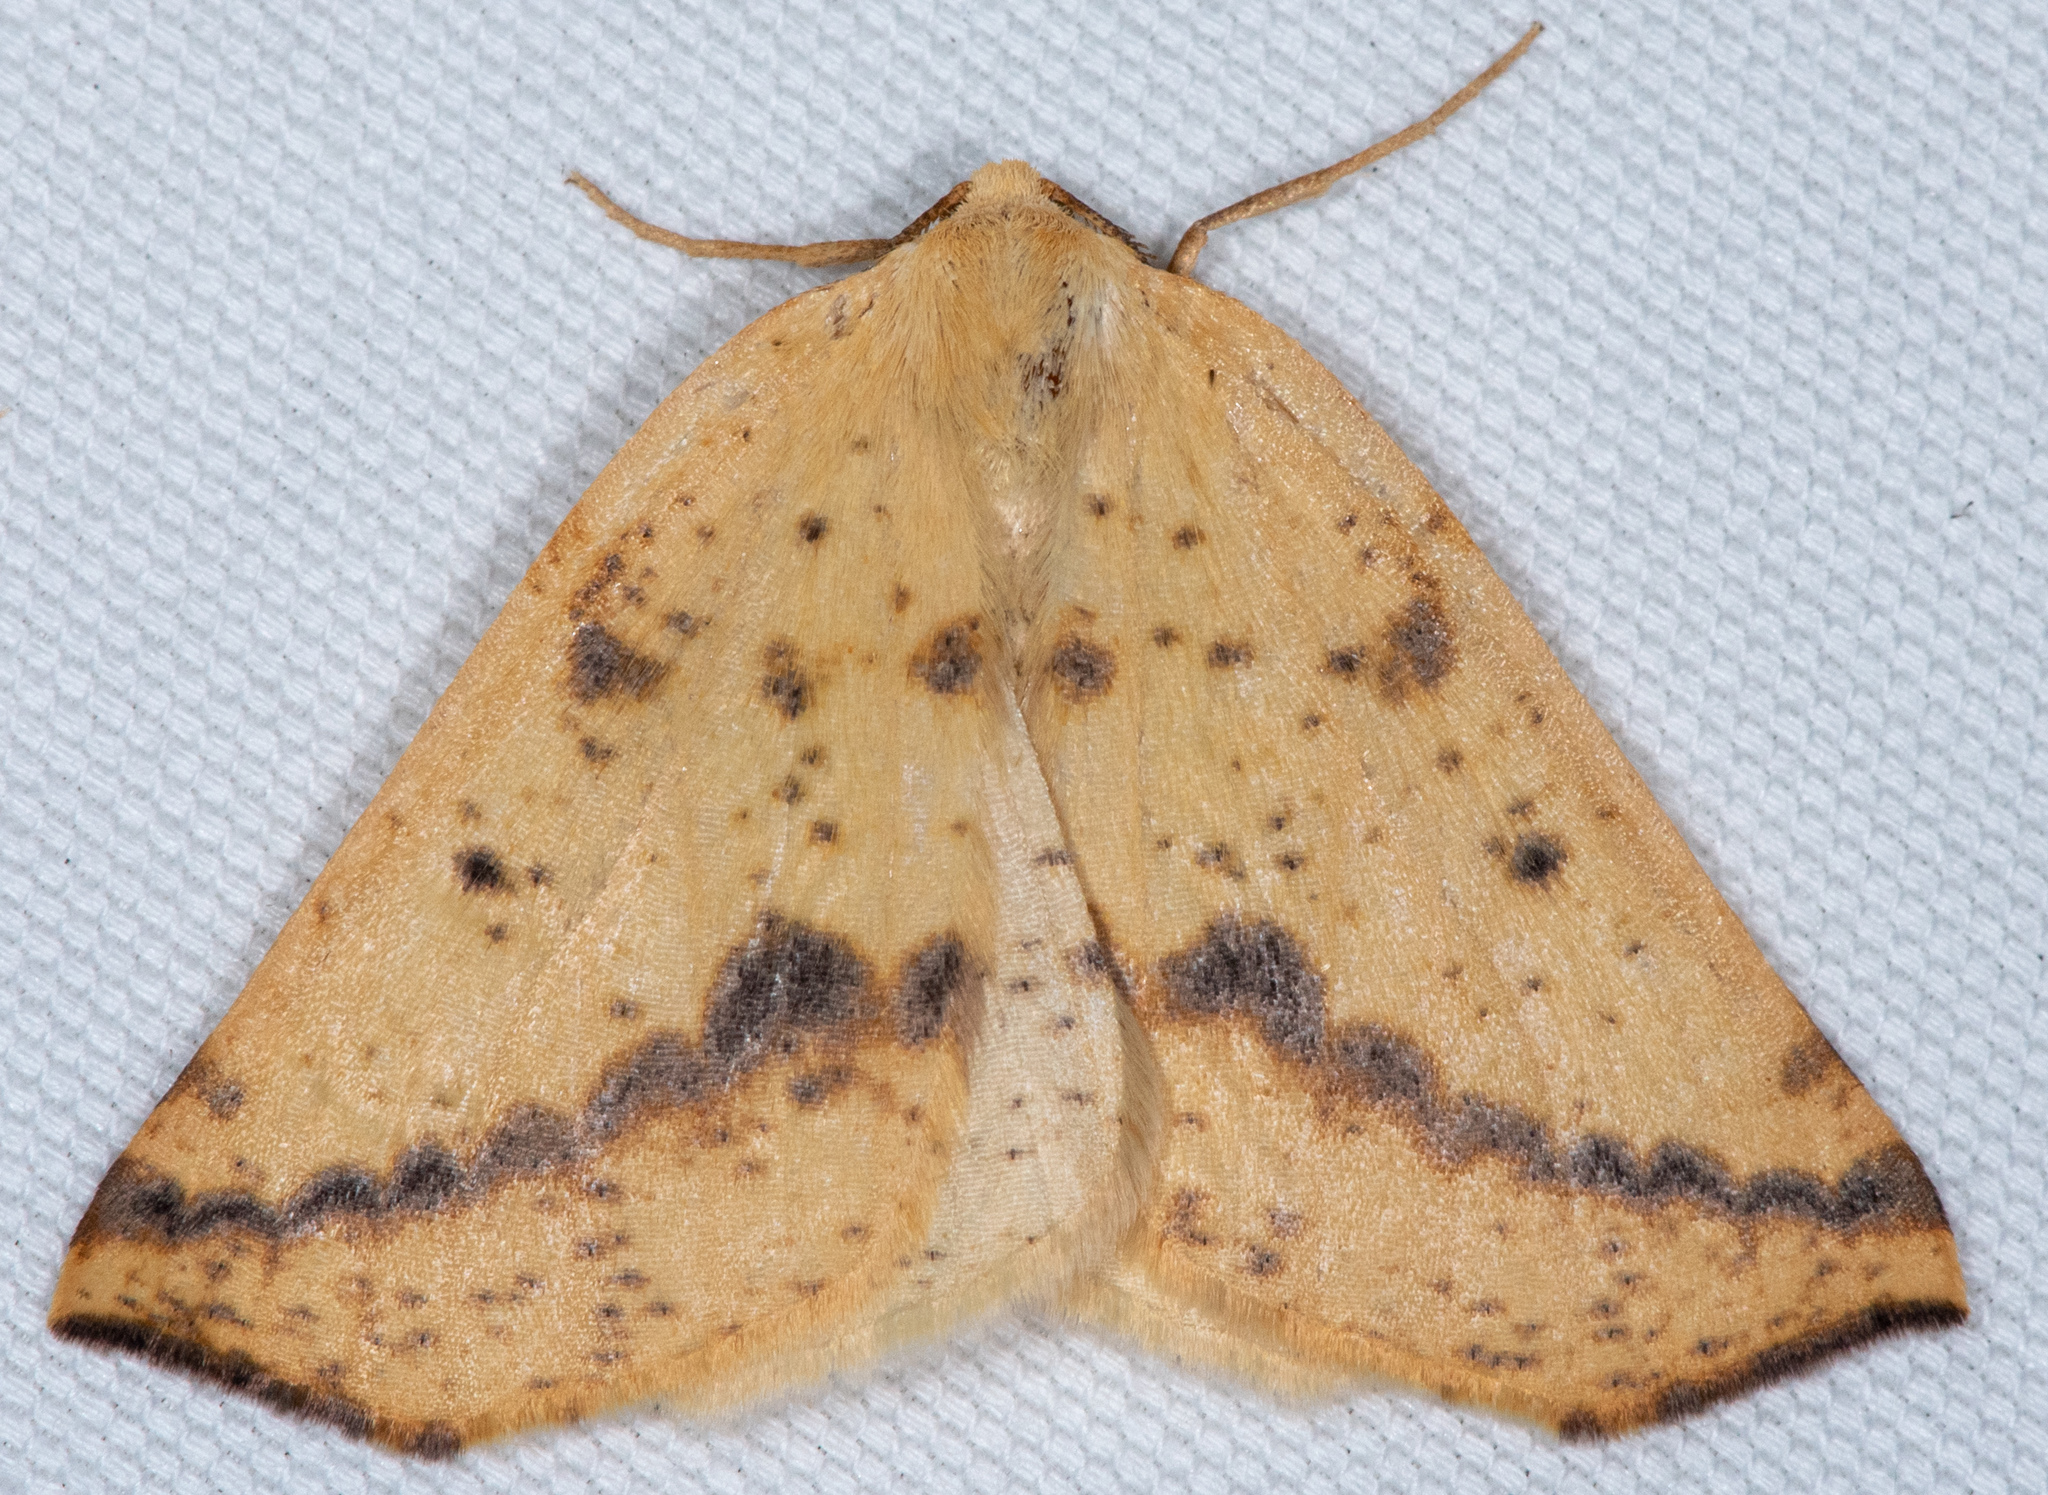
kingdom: Animalia
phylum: Arthropoda
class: Insecta
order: Lepidoptera
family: Geometridae
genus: Neoterpes
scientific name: Neoterpes ephelidaria
